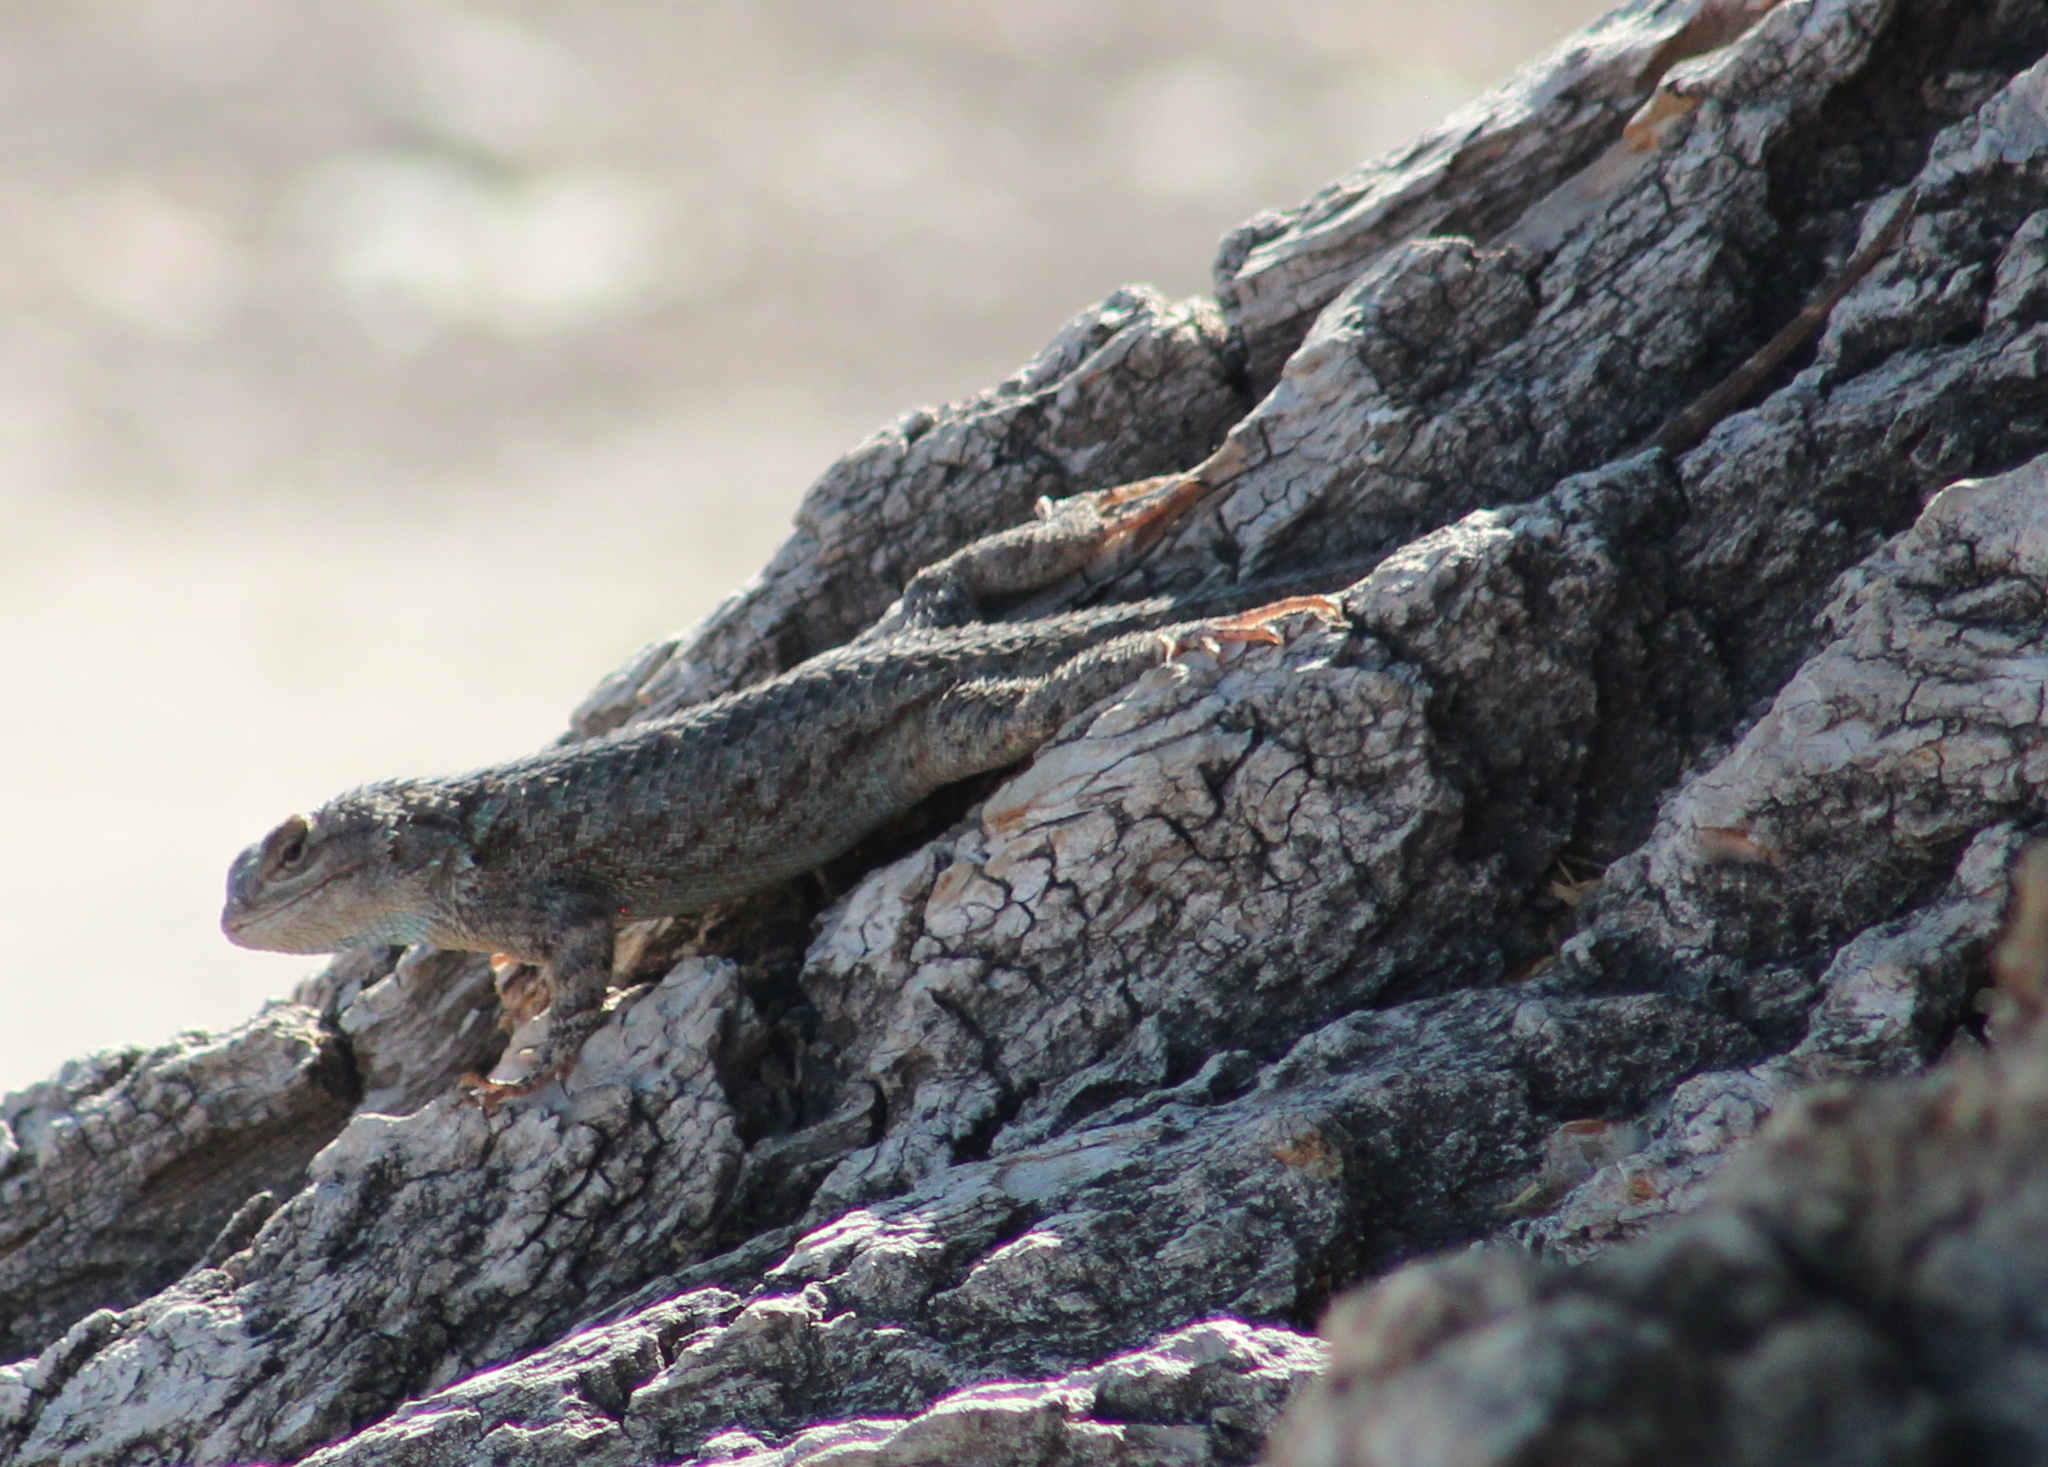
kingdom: Animalia
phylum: Chordata
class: Squamata
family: Phrynosomatidae
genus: Sceloporus
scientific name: Sceloporus clarkii
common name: Clark's spiny lizard
